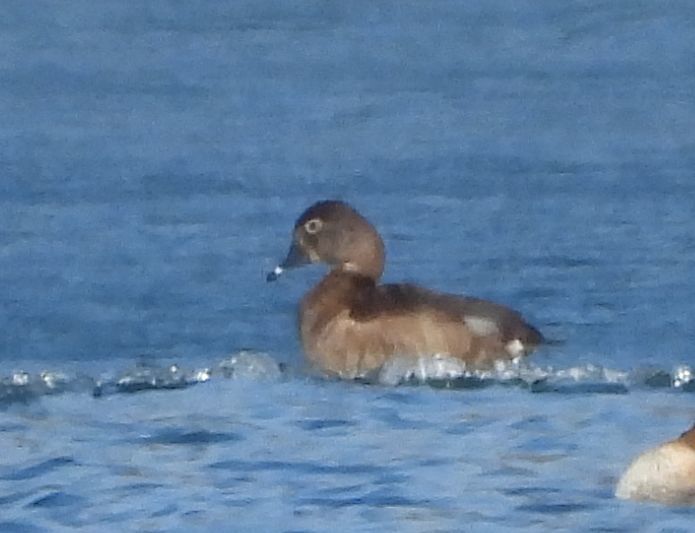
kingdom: Animalia
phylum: Chordata
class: Aves
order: Anseriformes
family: Anatidae
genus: Aythya
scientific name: Aythya collaris
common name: Ring-necked duck
